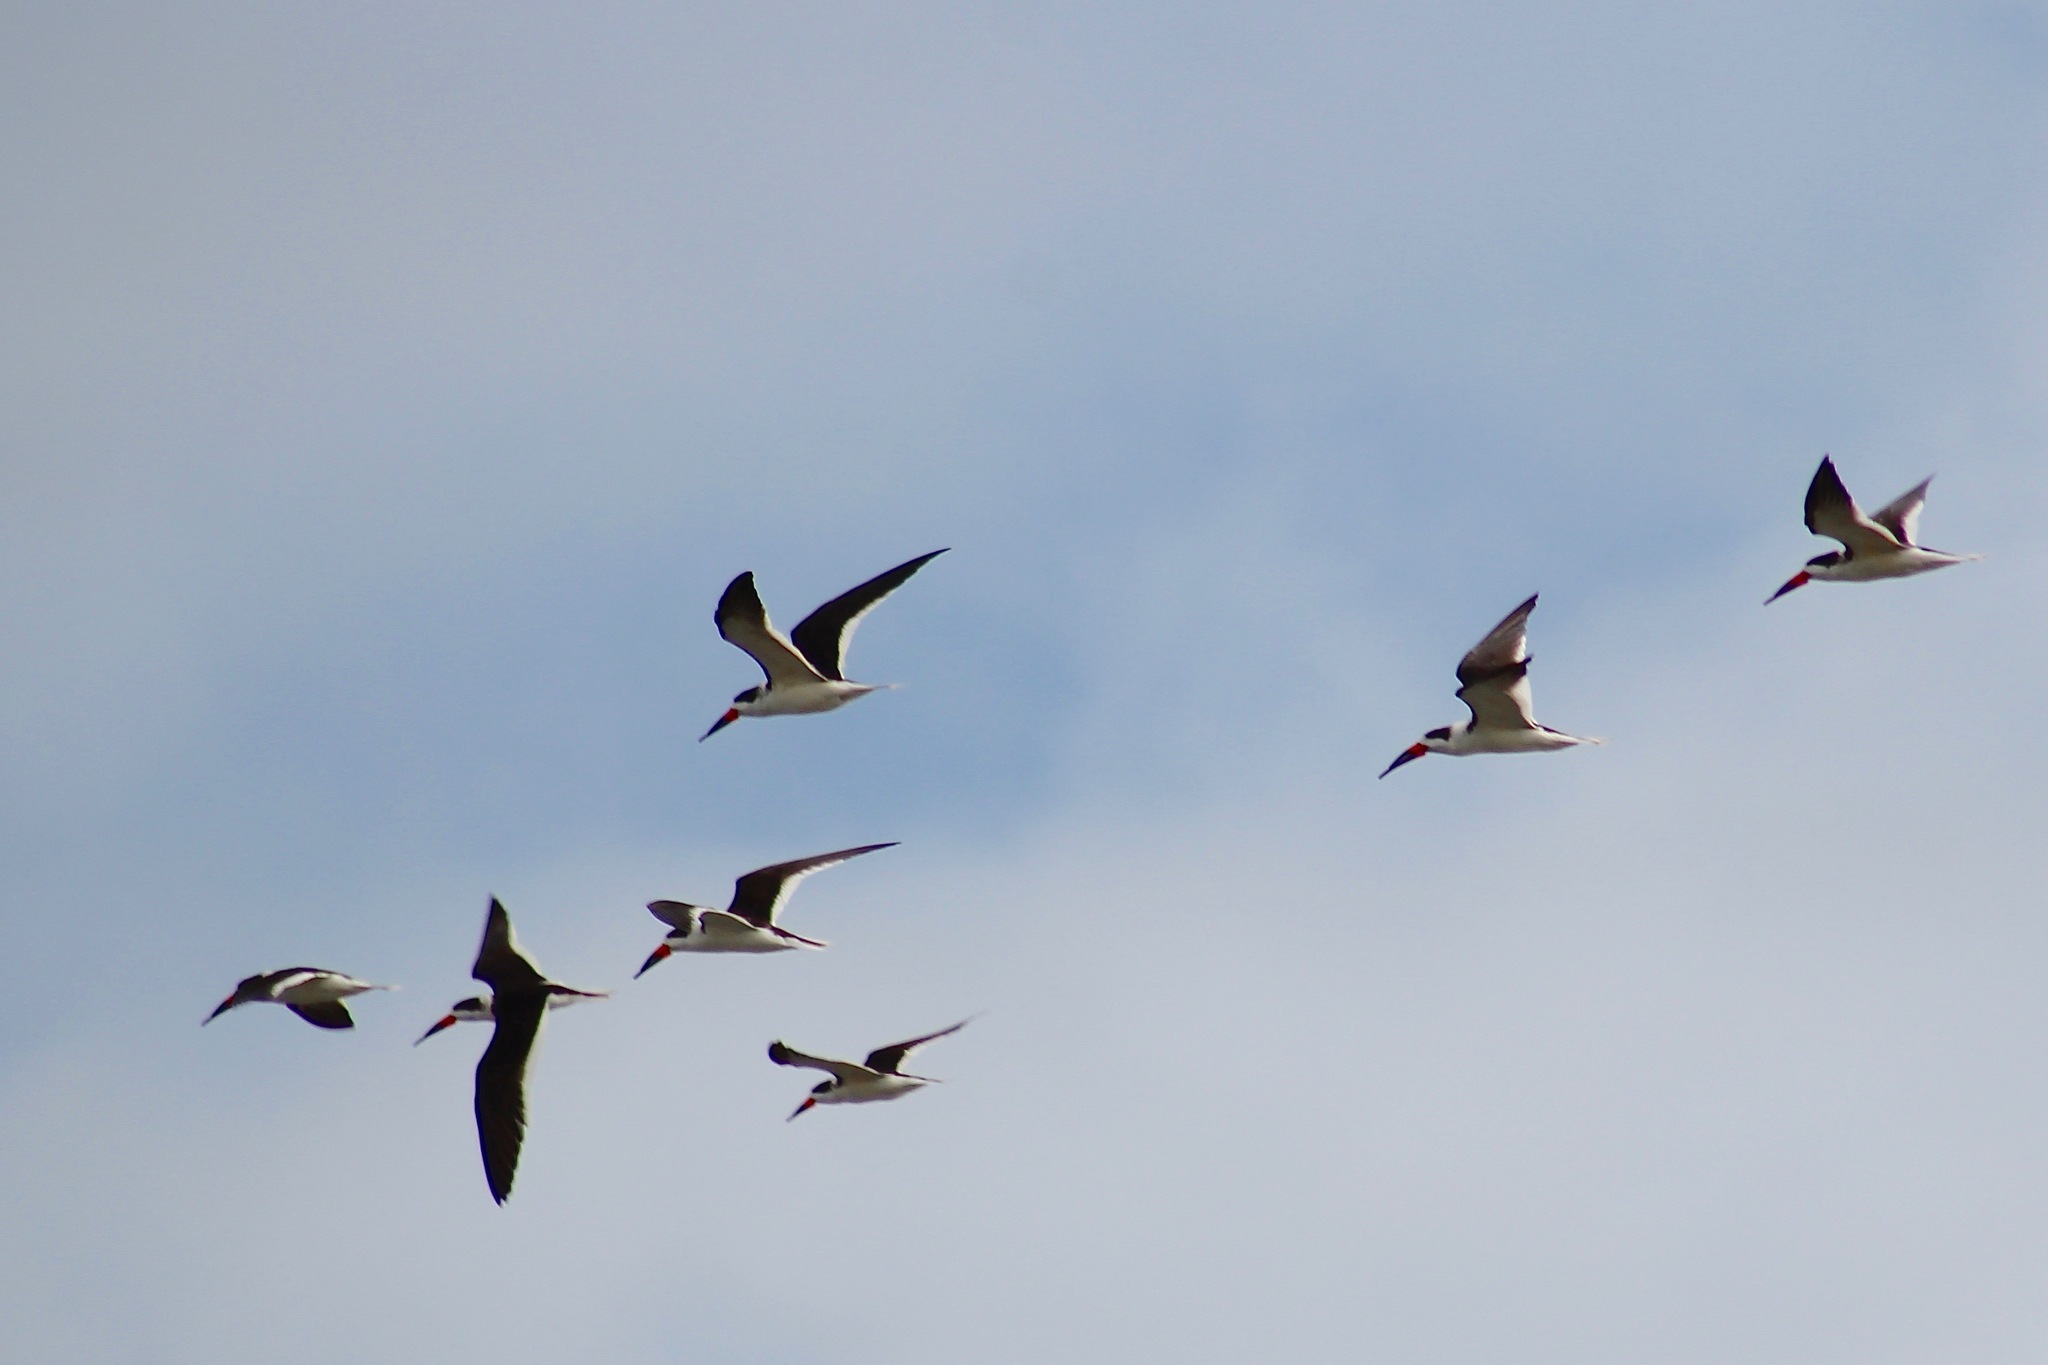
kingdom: Animalia
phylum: Chordata
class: Aves
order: Charadriiformes
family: Laridae
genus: Rynchops
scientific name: Rynchops niger
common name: Black skimmer
